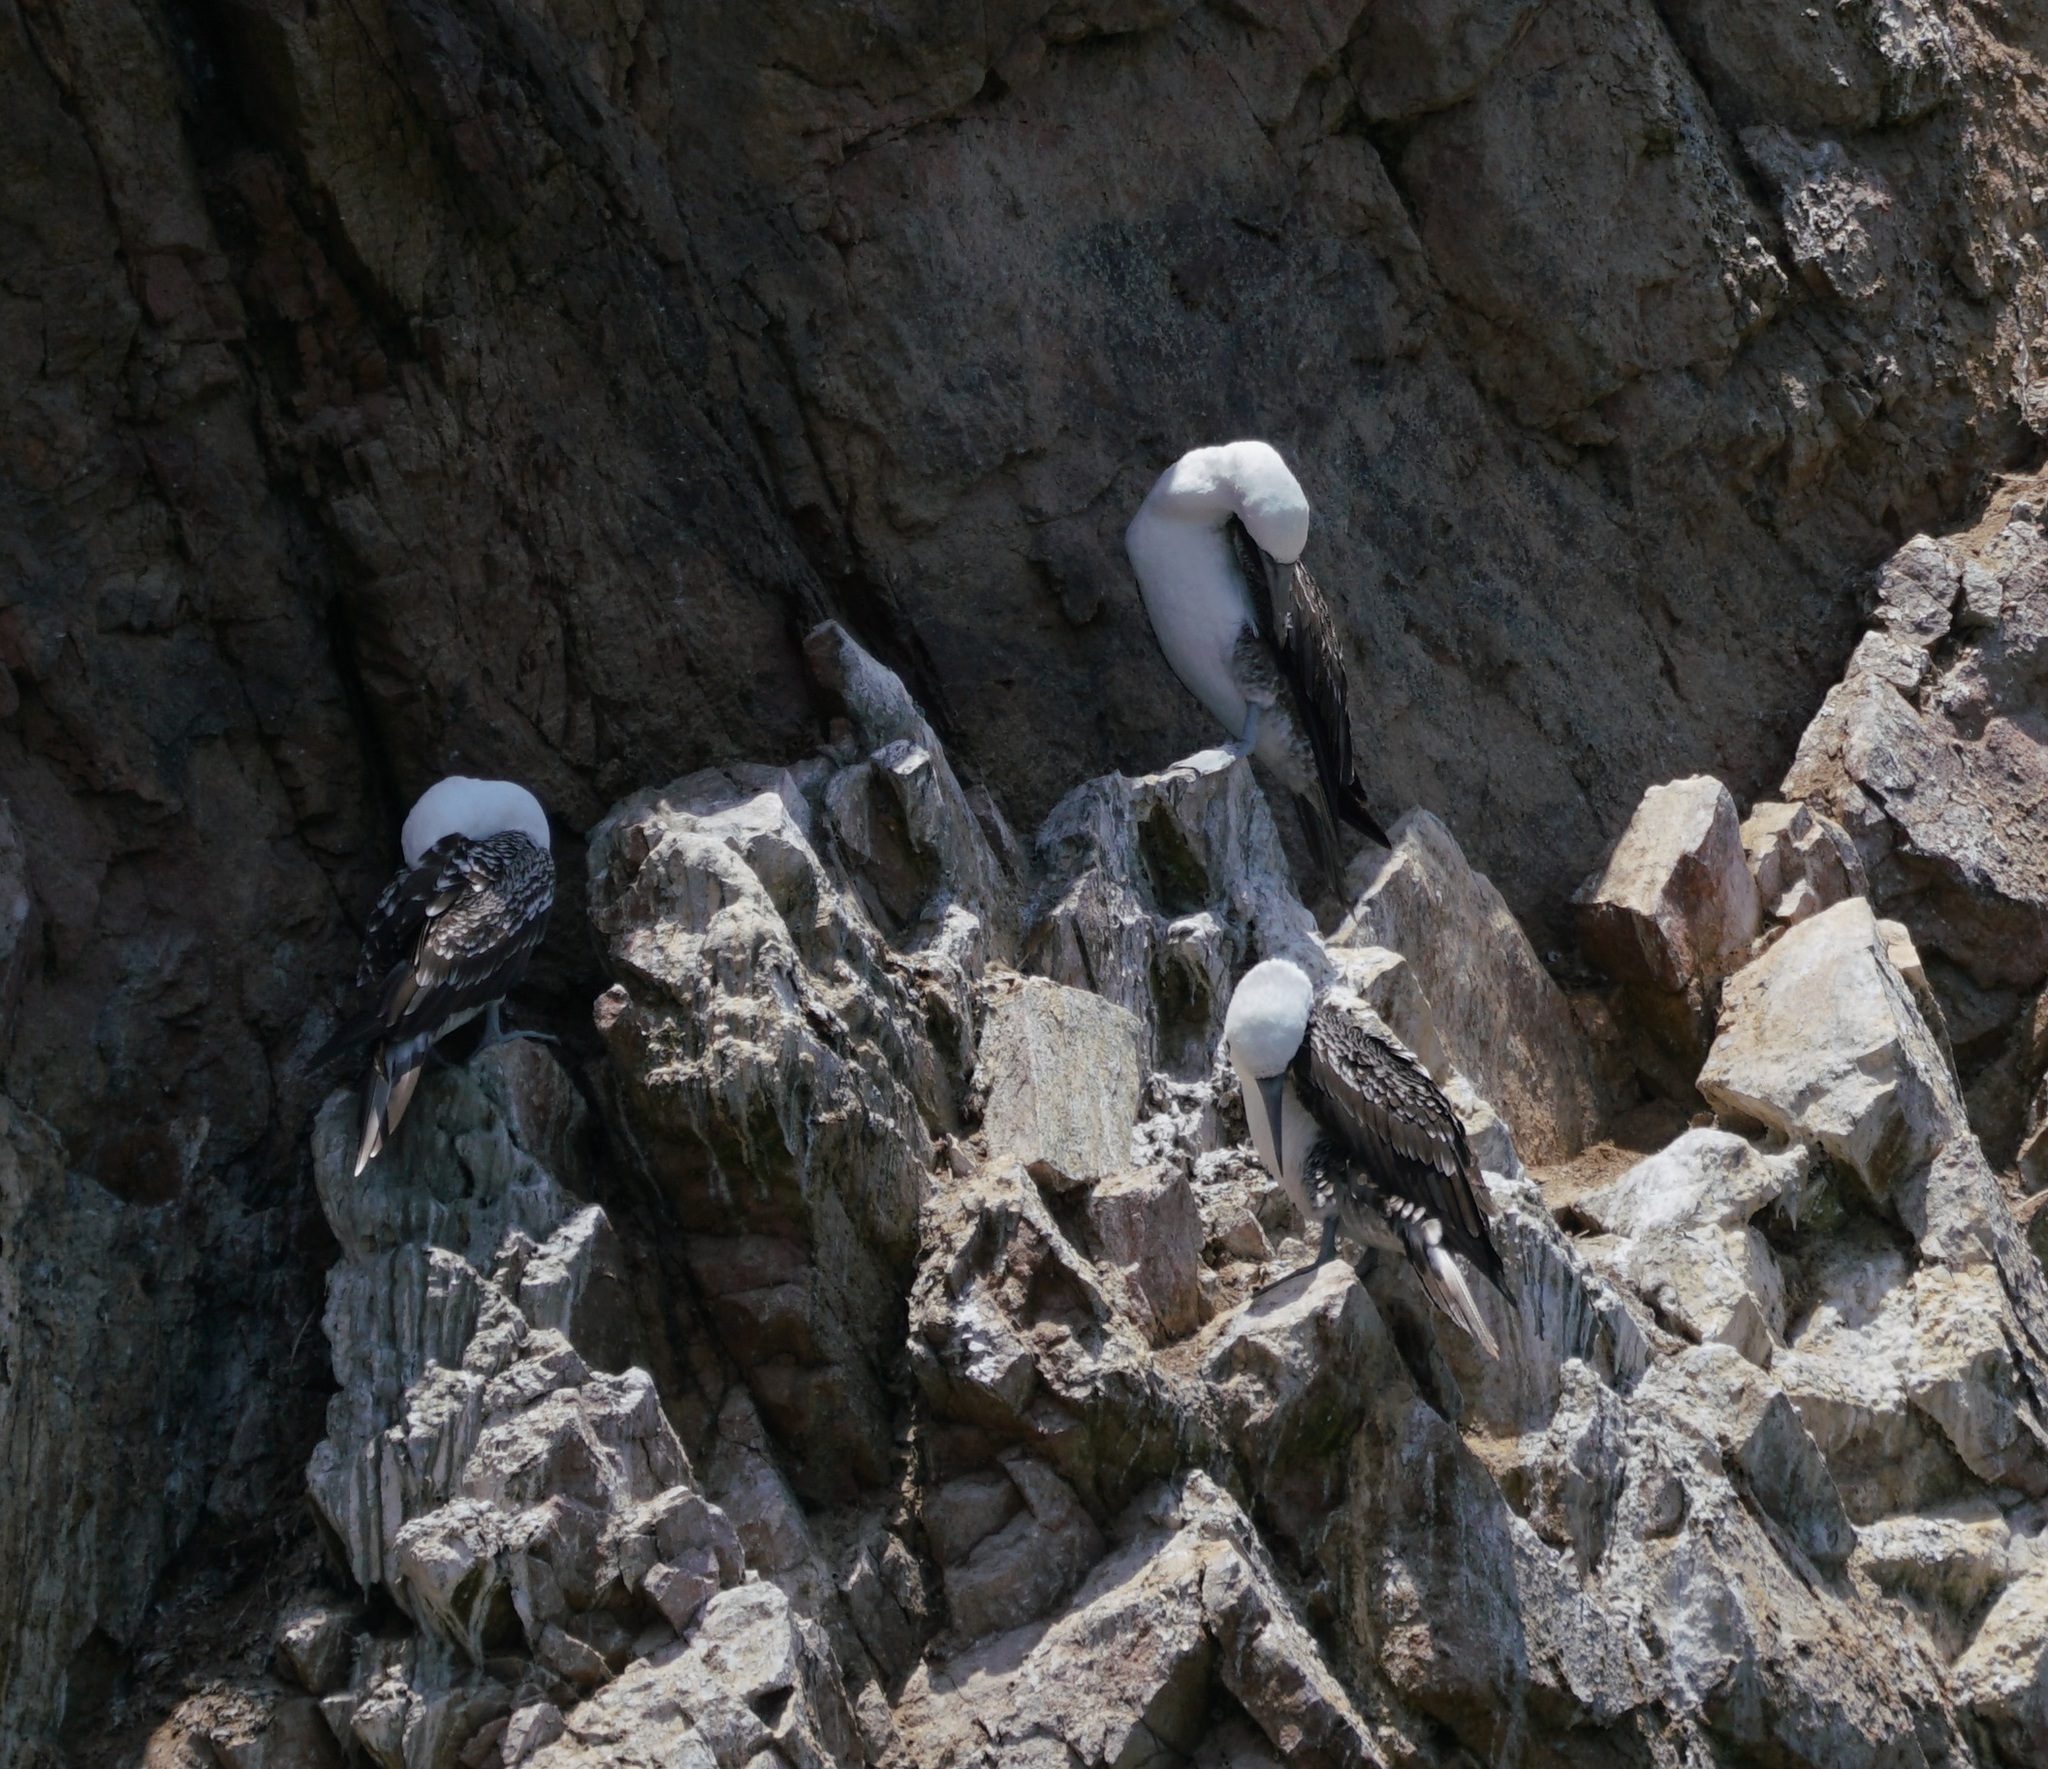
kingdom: Animalia
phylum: Chordata
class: Aves
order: Suliformes
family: Sulidae
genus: Sula
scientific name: Sula variegata
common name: Peruvian booby
